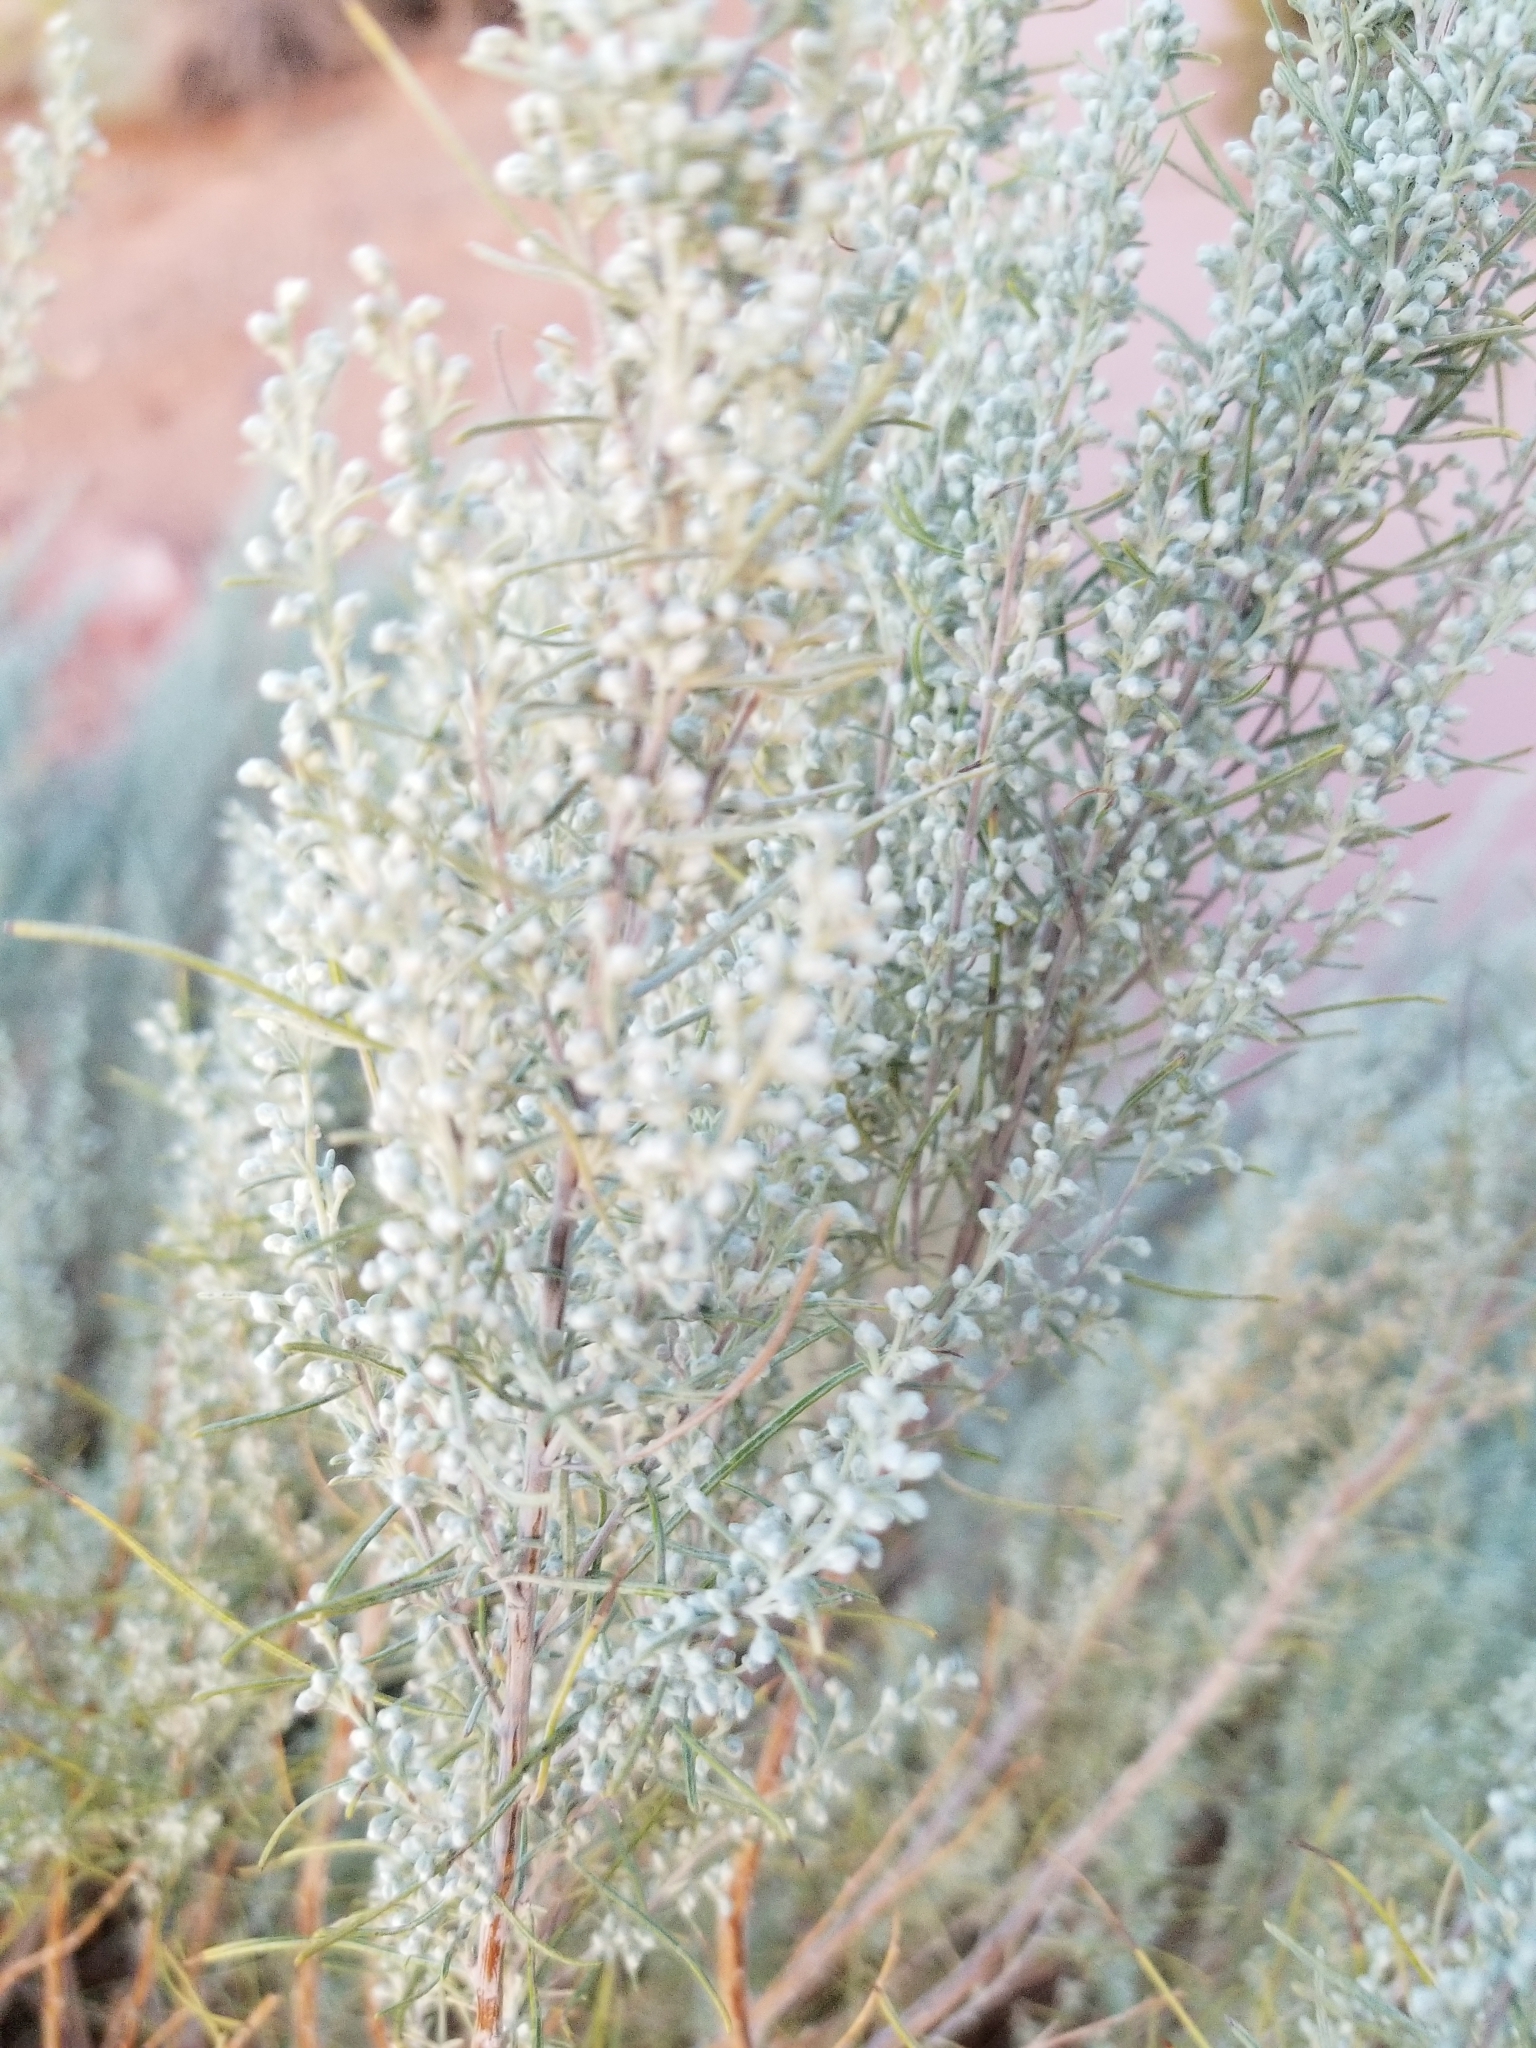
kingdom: Plantae
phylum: Tracheophyta
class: Magnoliopsida
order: Asterales
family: Asteraceae
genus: Artemisia
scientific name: Artemisia filifolia
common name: Sand-sage
